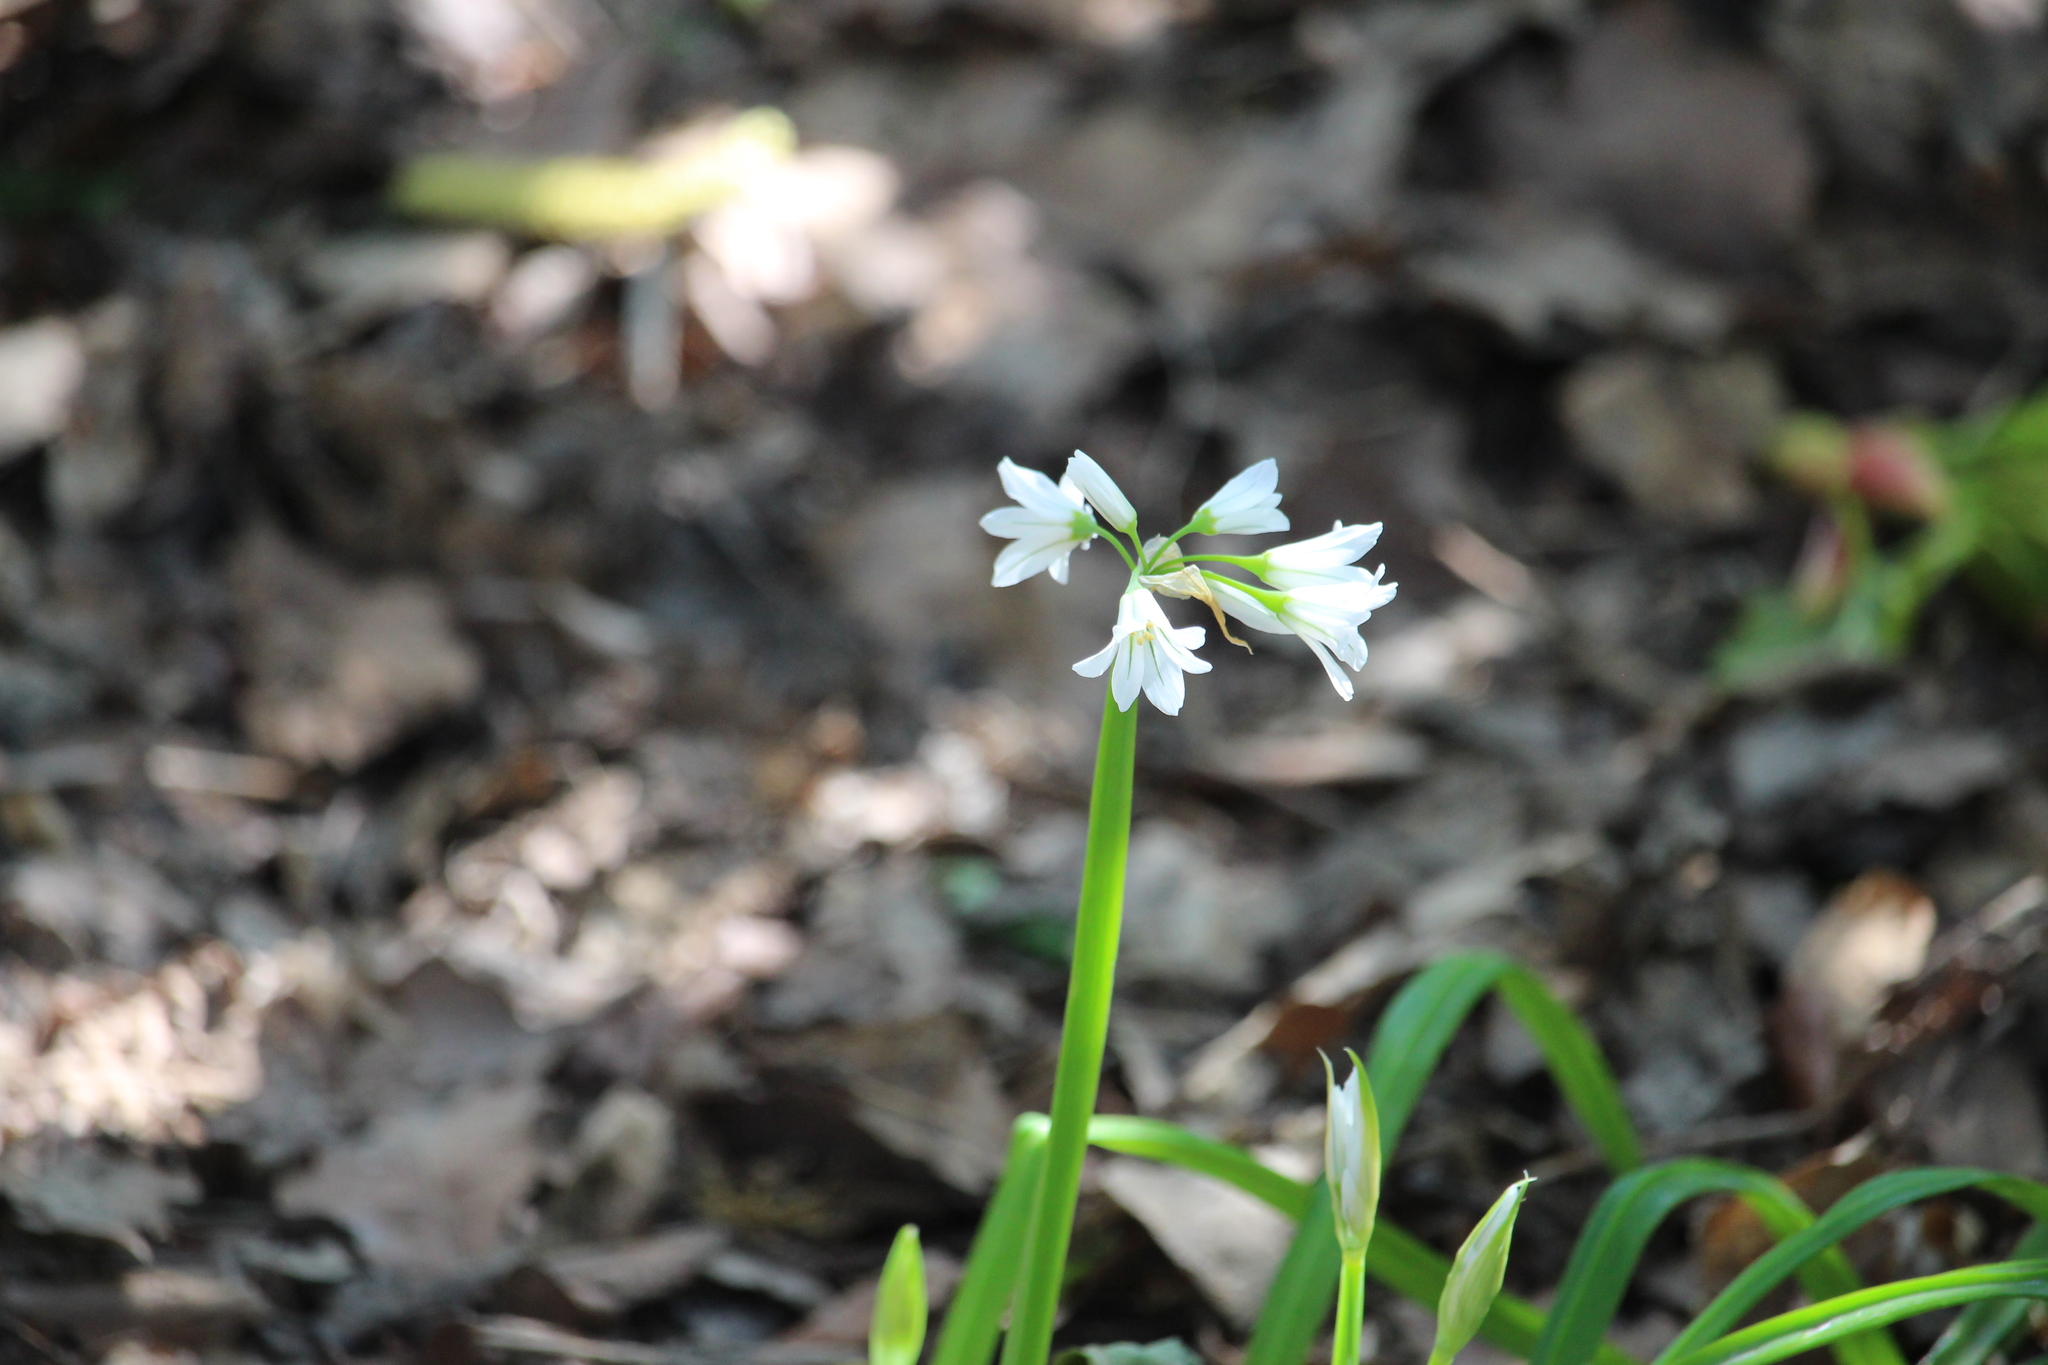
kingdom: Plantae
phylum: Tracheophyta
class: Liliopsida
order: Asparagales
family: Amaryllidaceae
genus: Allium
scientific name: Allium triquetrum
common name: Three-cornered garlic
